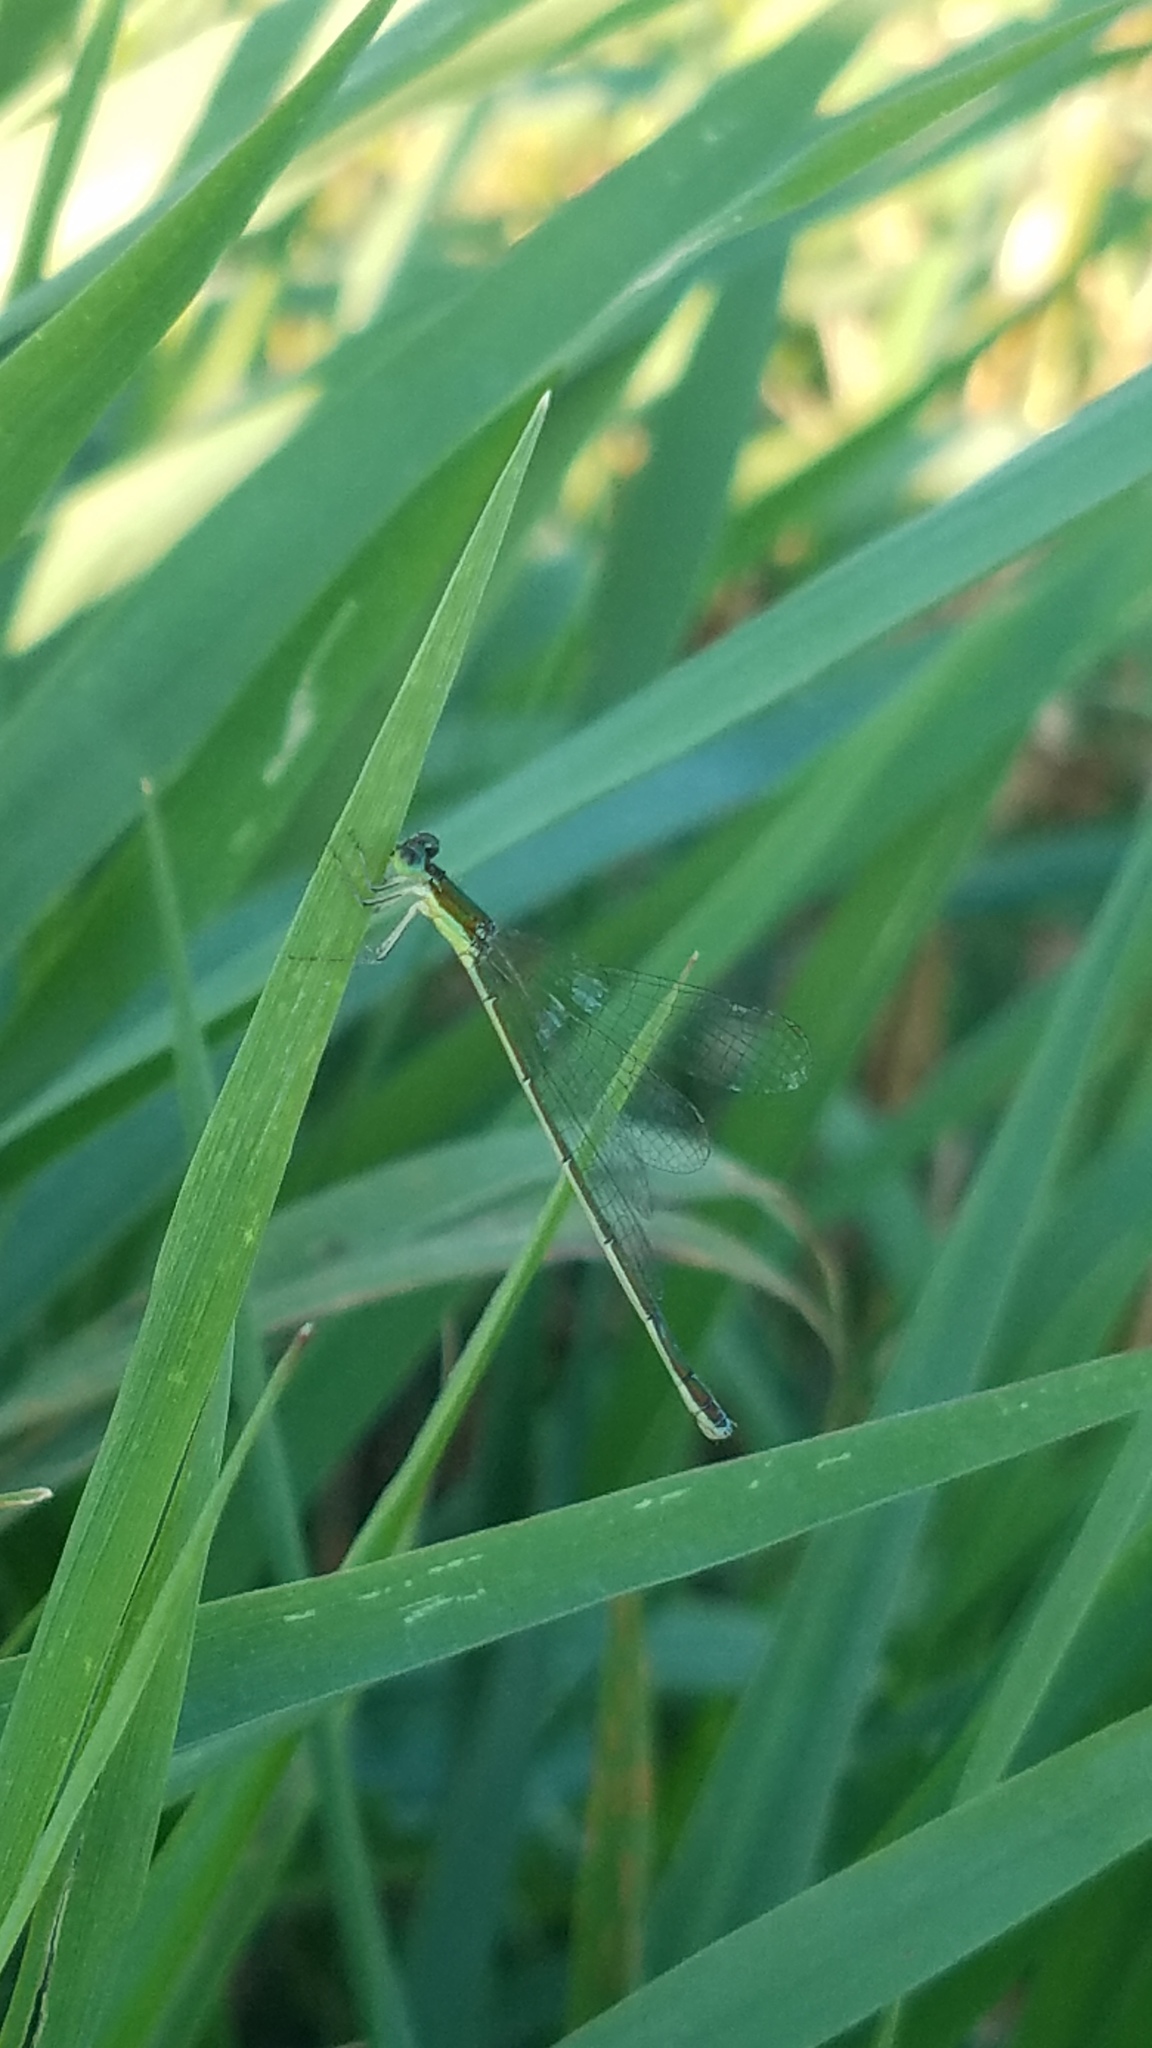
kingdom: Animalia
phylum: Arthropoda
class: Insecta
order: Odonata
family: Coenagrionidae
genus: Nehalennia
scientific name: Nehalennia irene
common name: Sedge sprite
